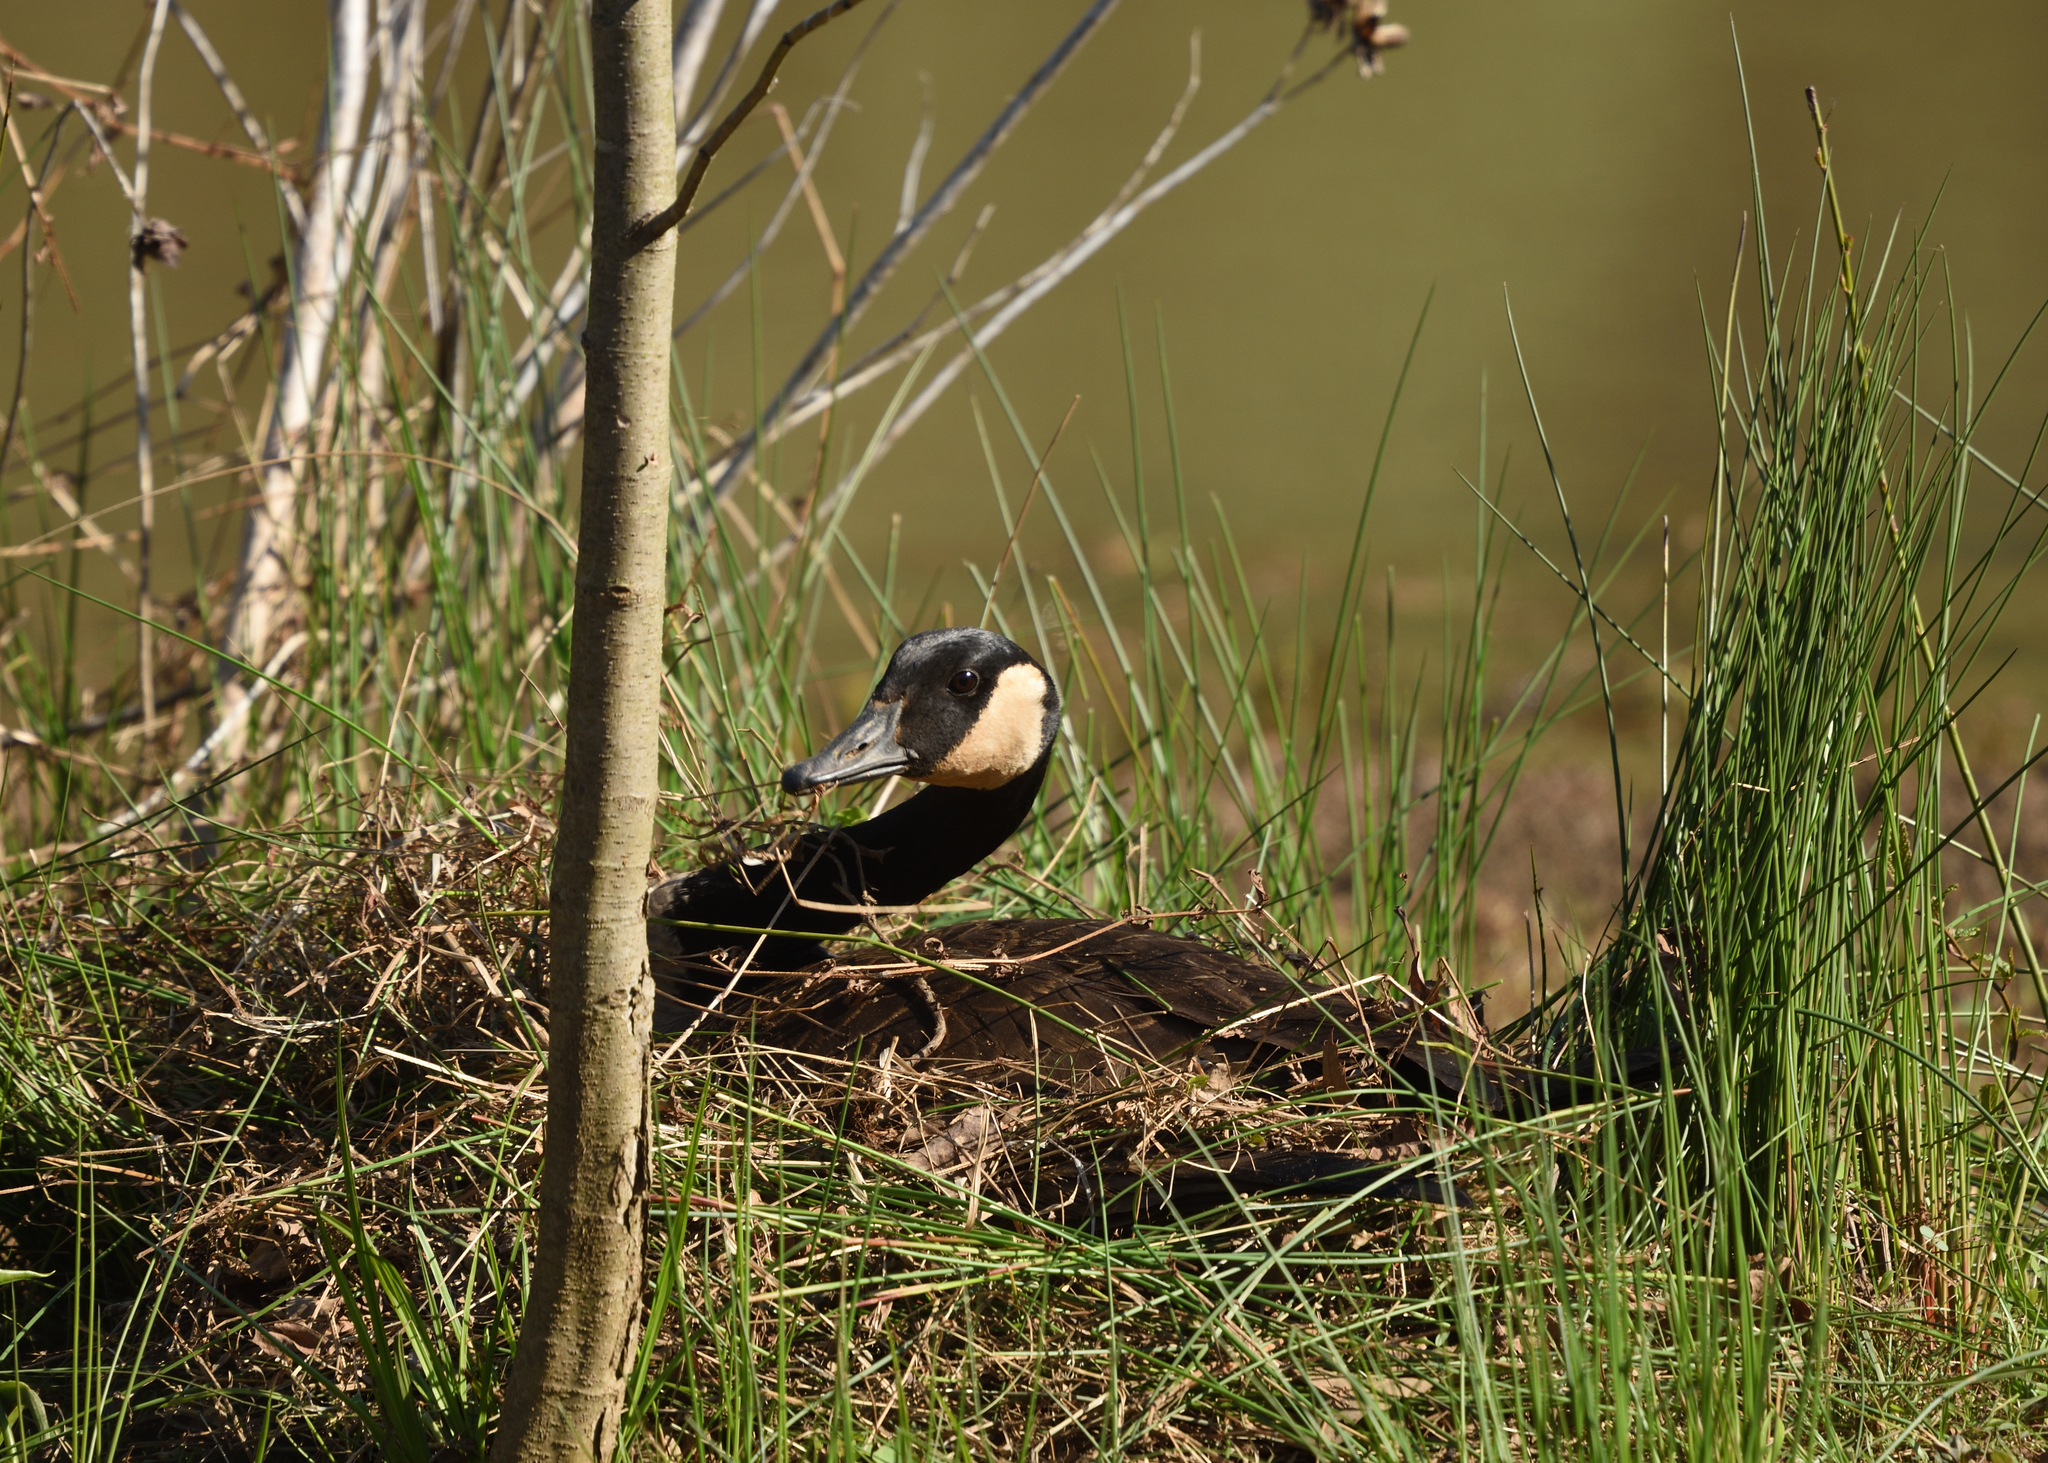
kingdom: Animalia
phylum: Chordata
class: Aves
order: Anseriformes
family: Anatidae
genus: Branta
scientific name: Branta canadensis
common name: Canada goose
